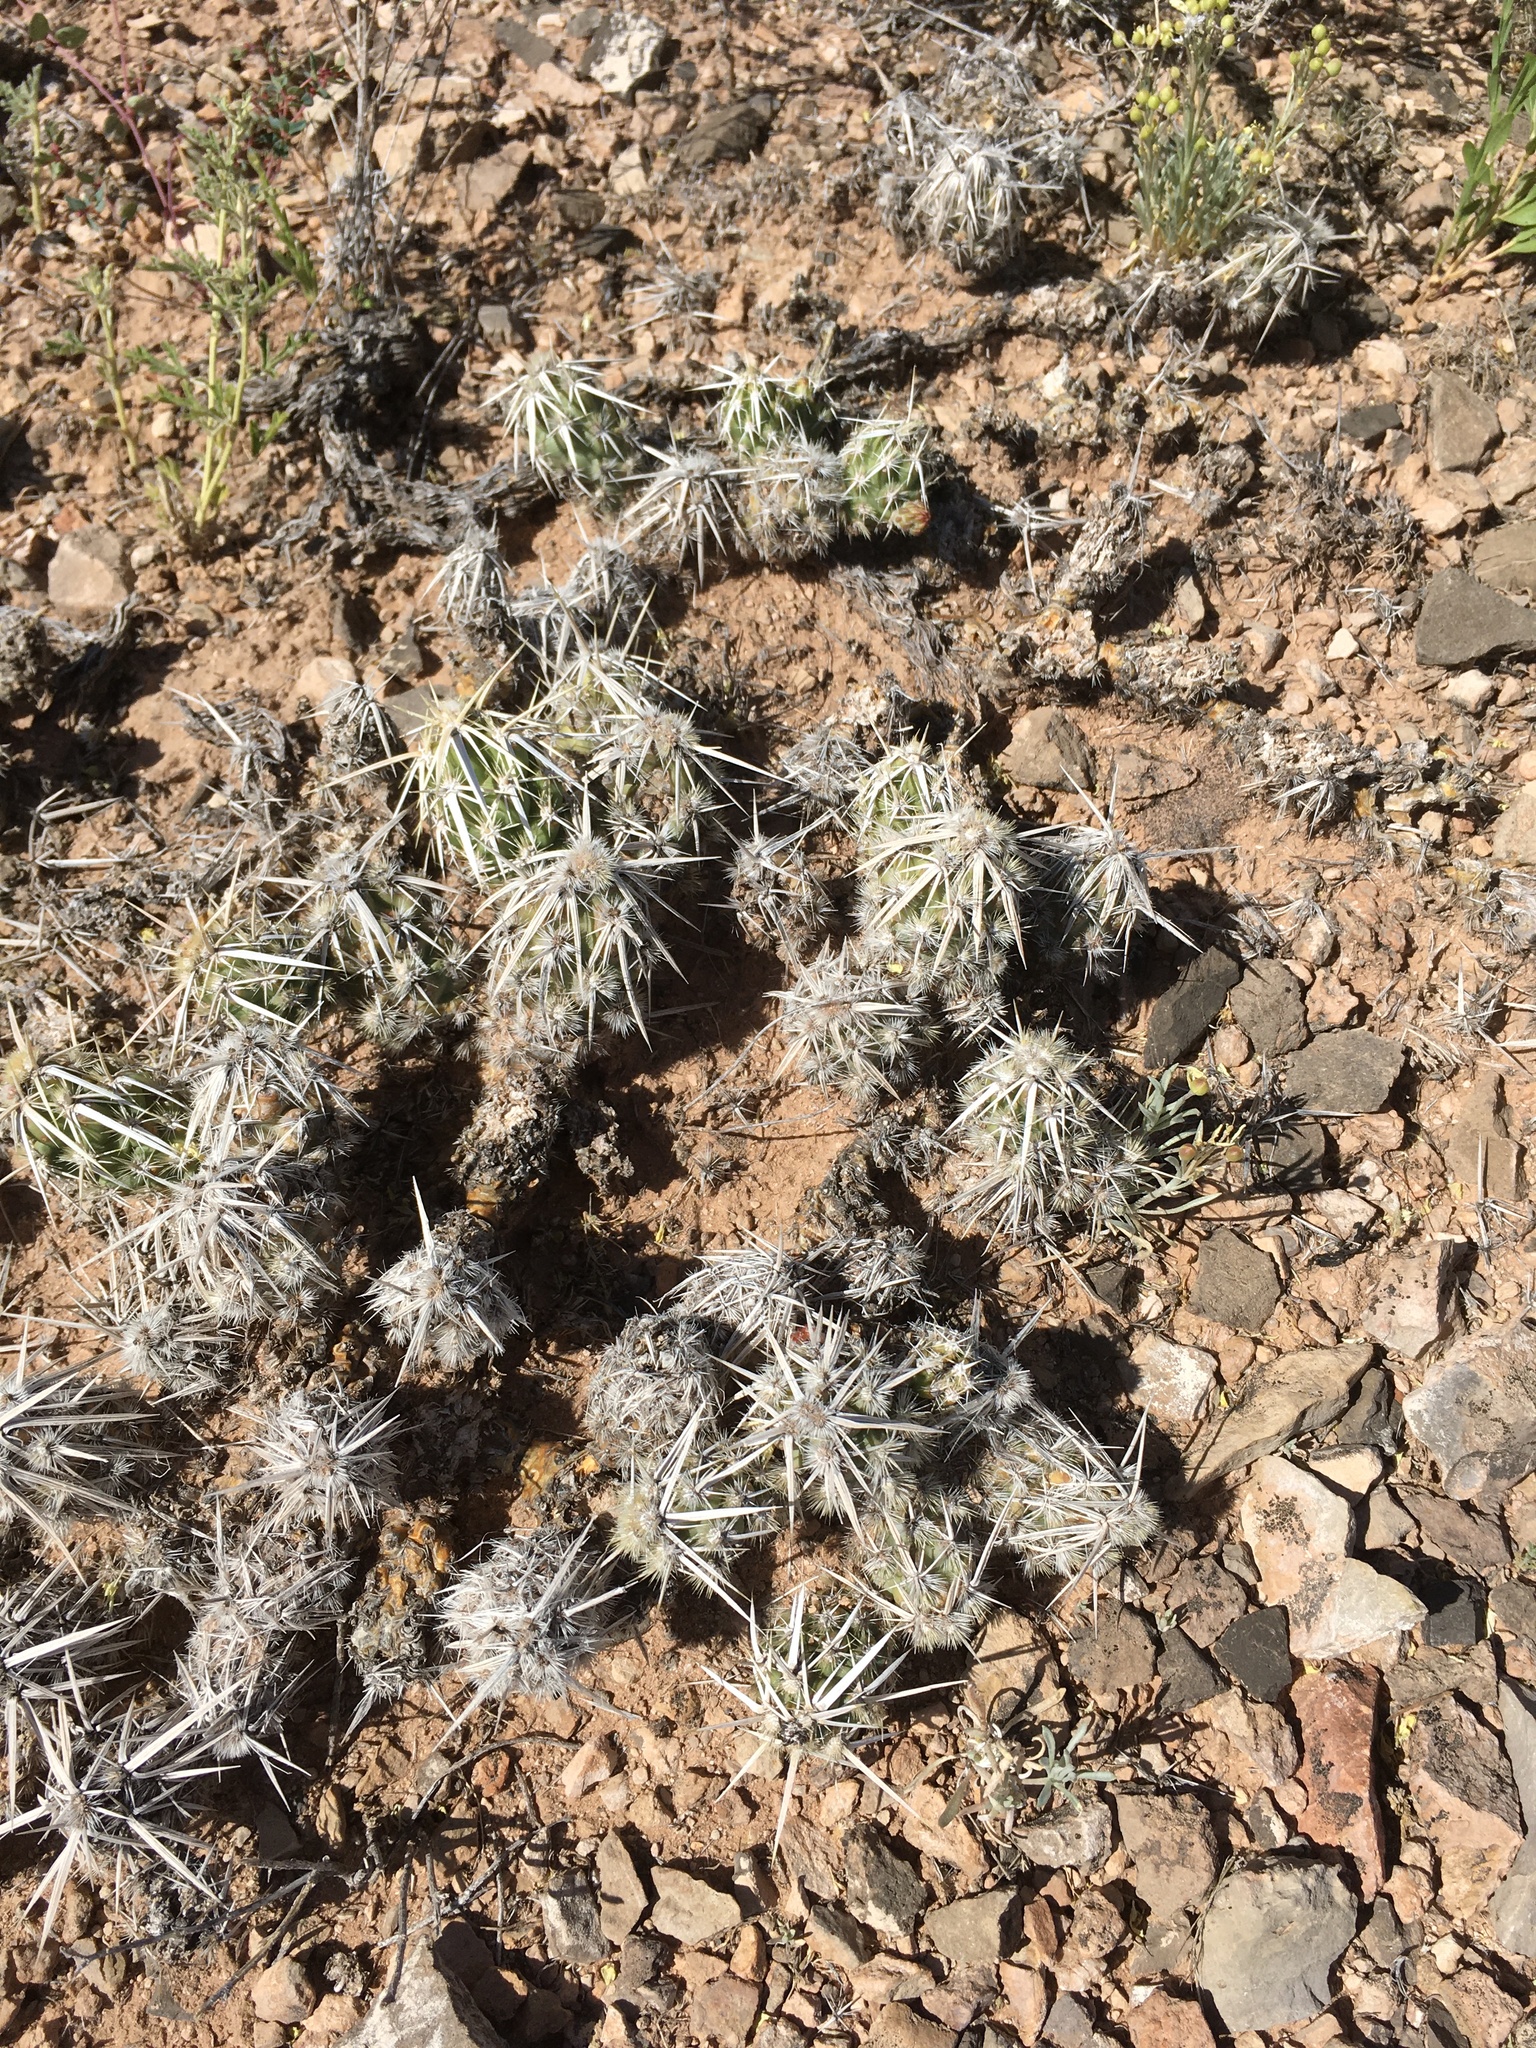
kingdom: Plantae
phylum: Tracheophyta
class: Magnoliopsida
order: Caryophyllales
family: Cactaceae
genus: Grusonia
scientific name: Grusonia clavata
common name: Club cholla
